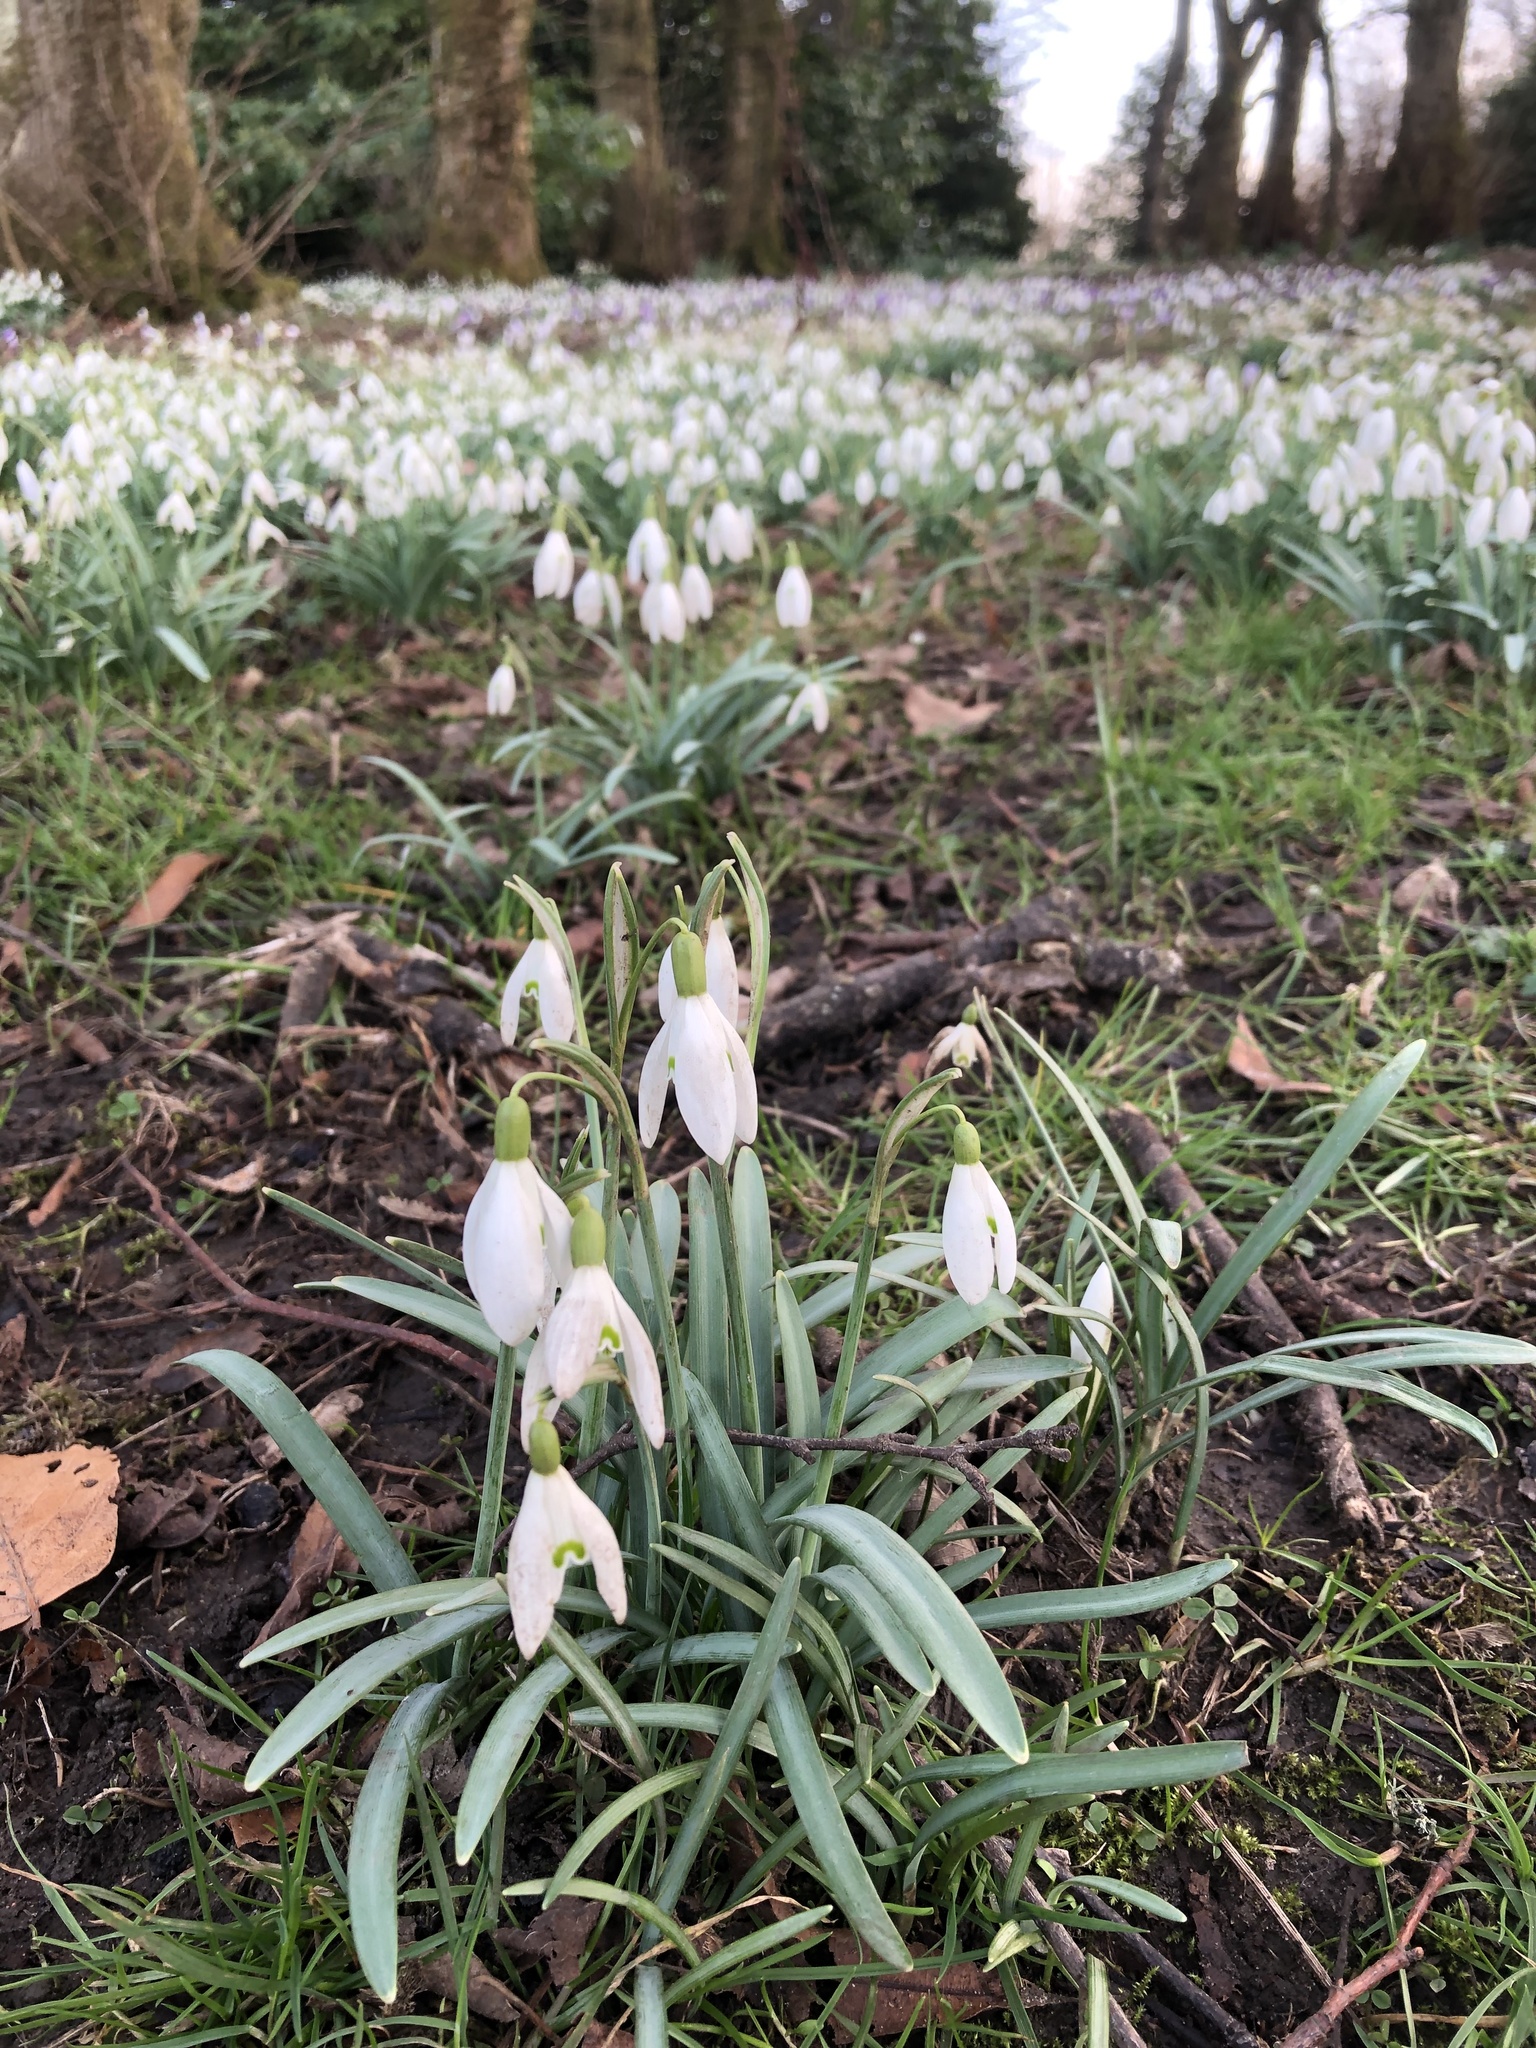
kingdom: Plantae
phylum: Tracheophyta
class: Liliopsida
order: Asparagales
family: Amaryllidaceae
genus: Galanthus
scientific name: Galanthus nivalis
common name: Snowdrop
